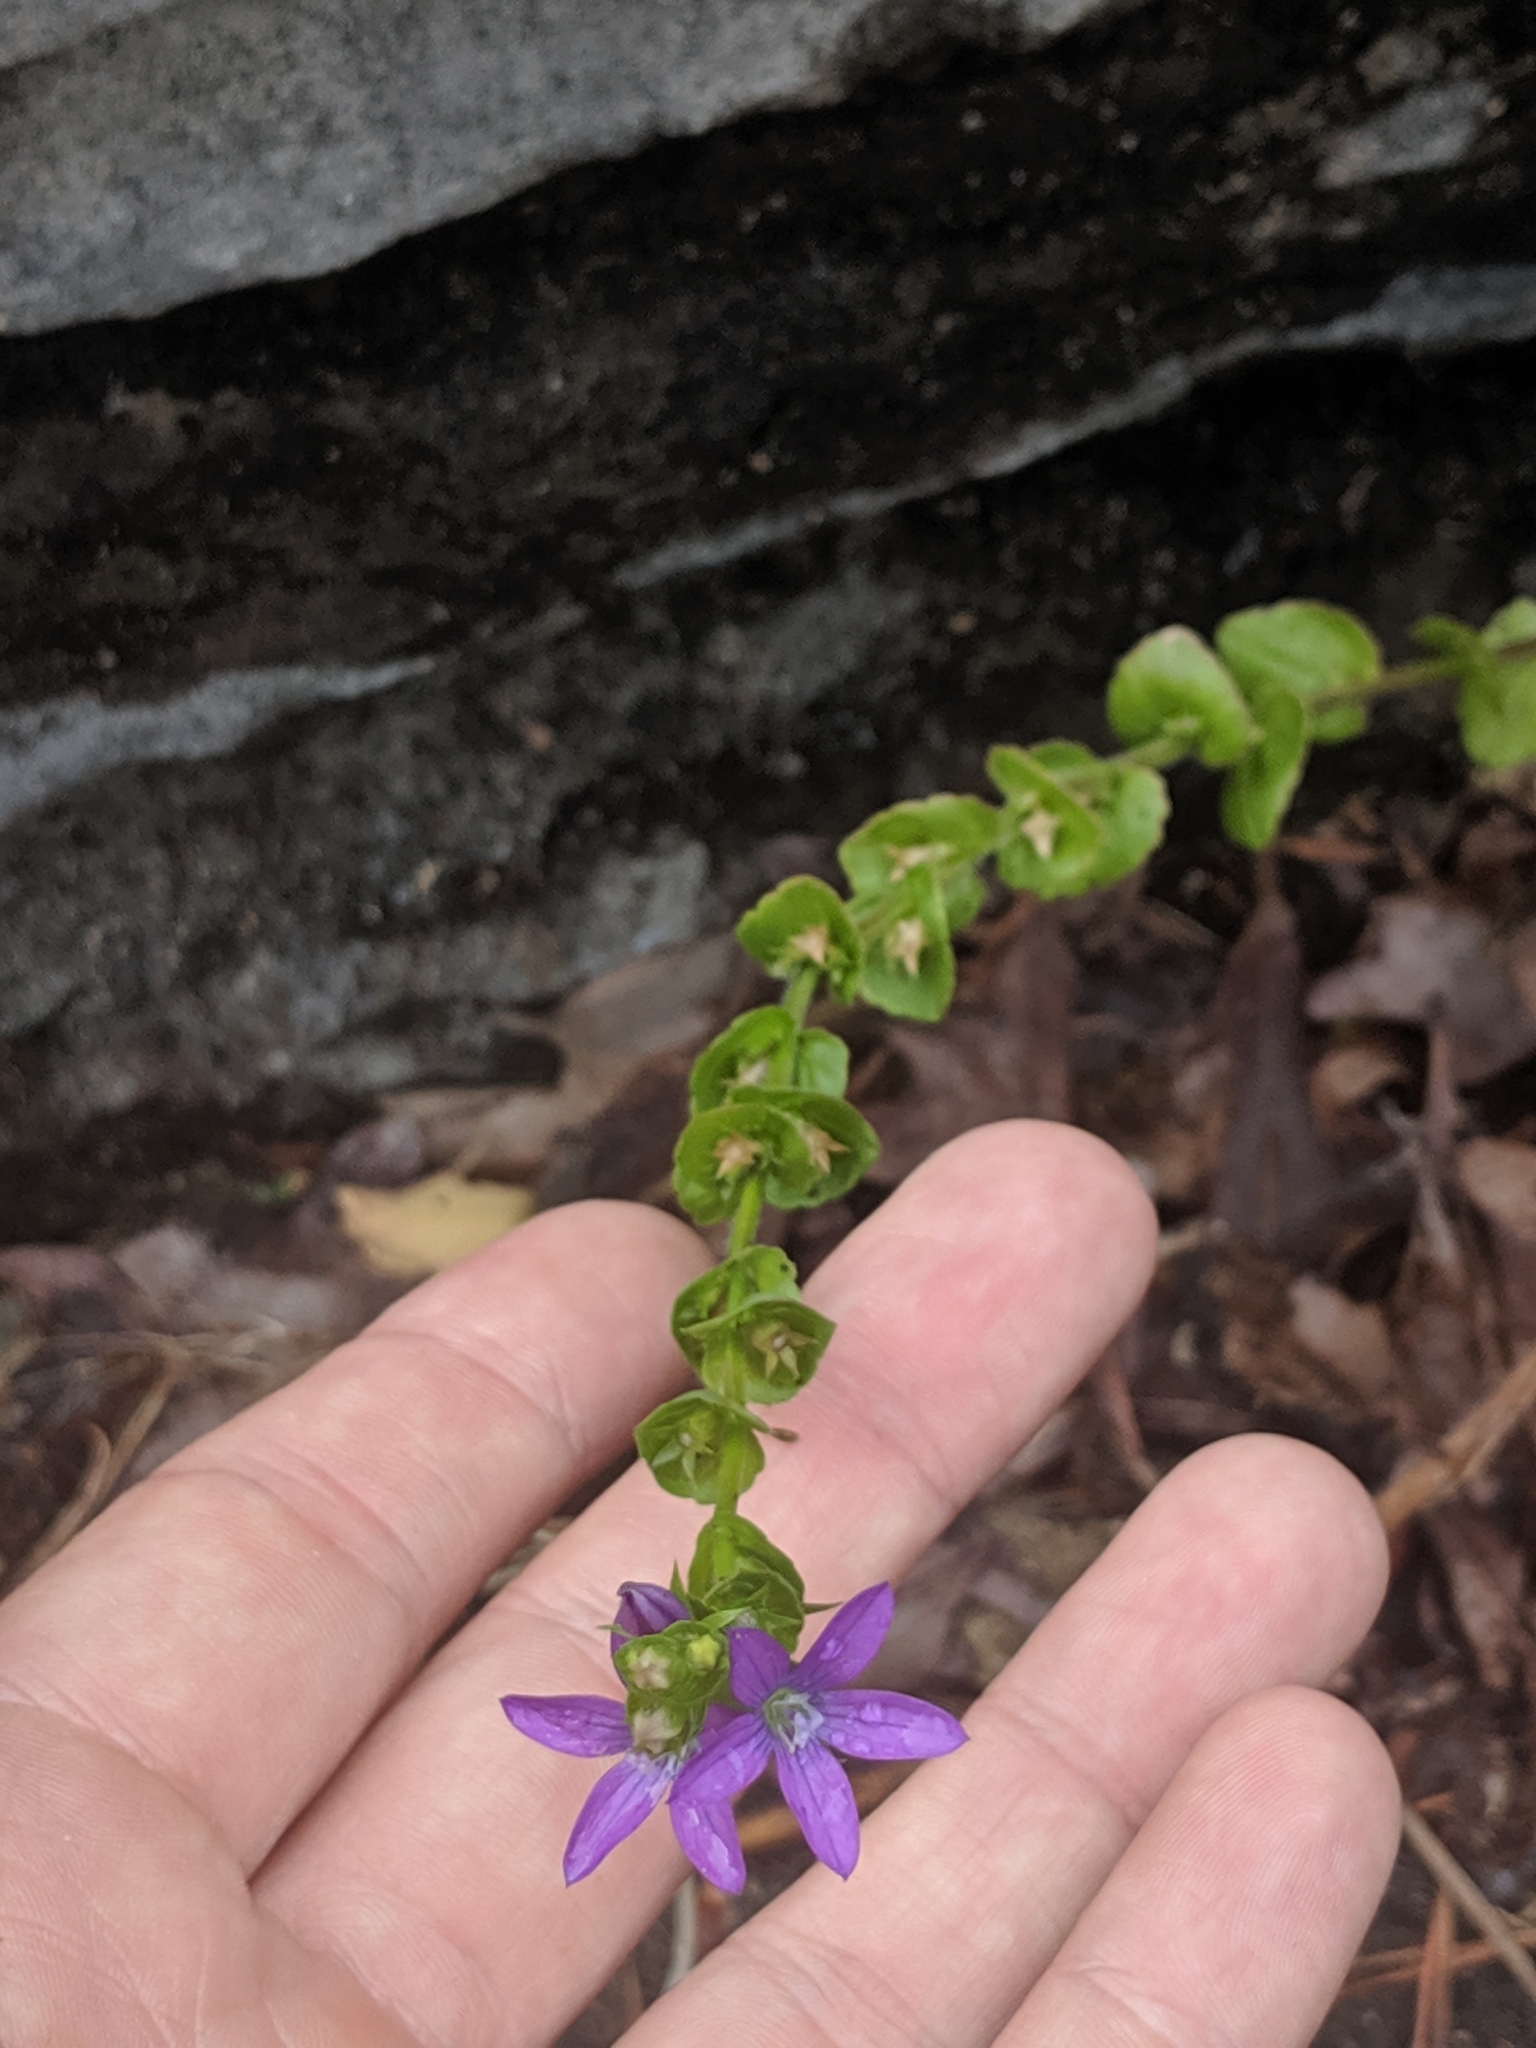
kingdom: Plantae
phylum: Tracheophyta
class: Magnoliopsida
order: Asterales
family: Campanulaceae
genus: Triodanis
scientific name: Triodanis perfoliata
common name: Clasping venus' looking-glass
